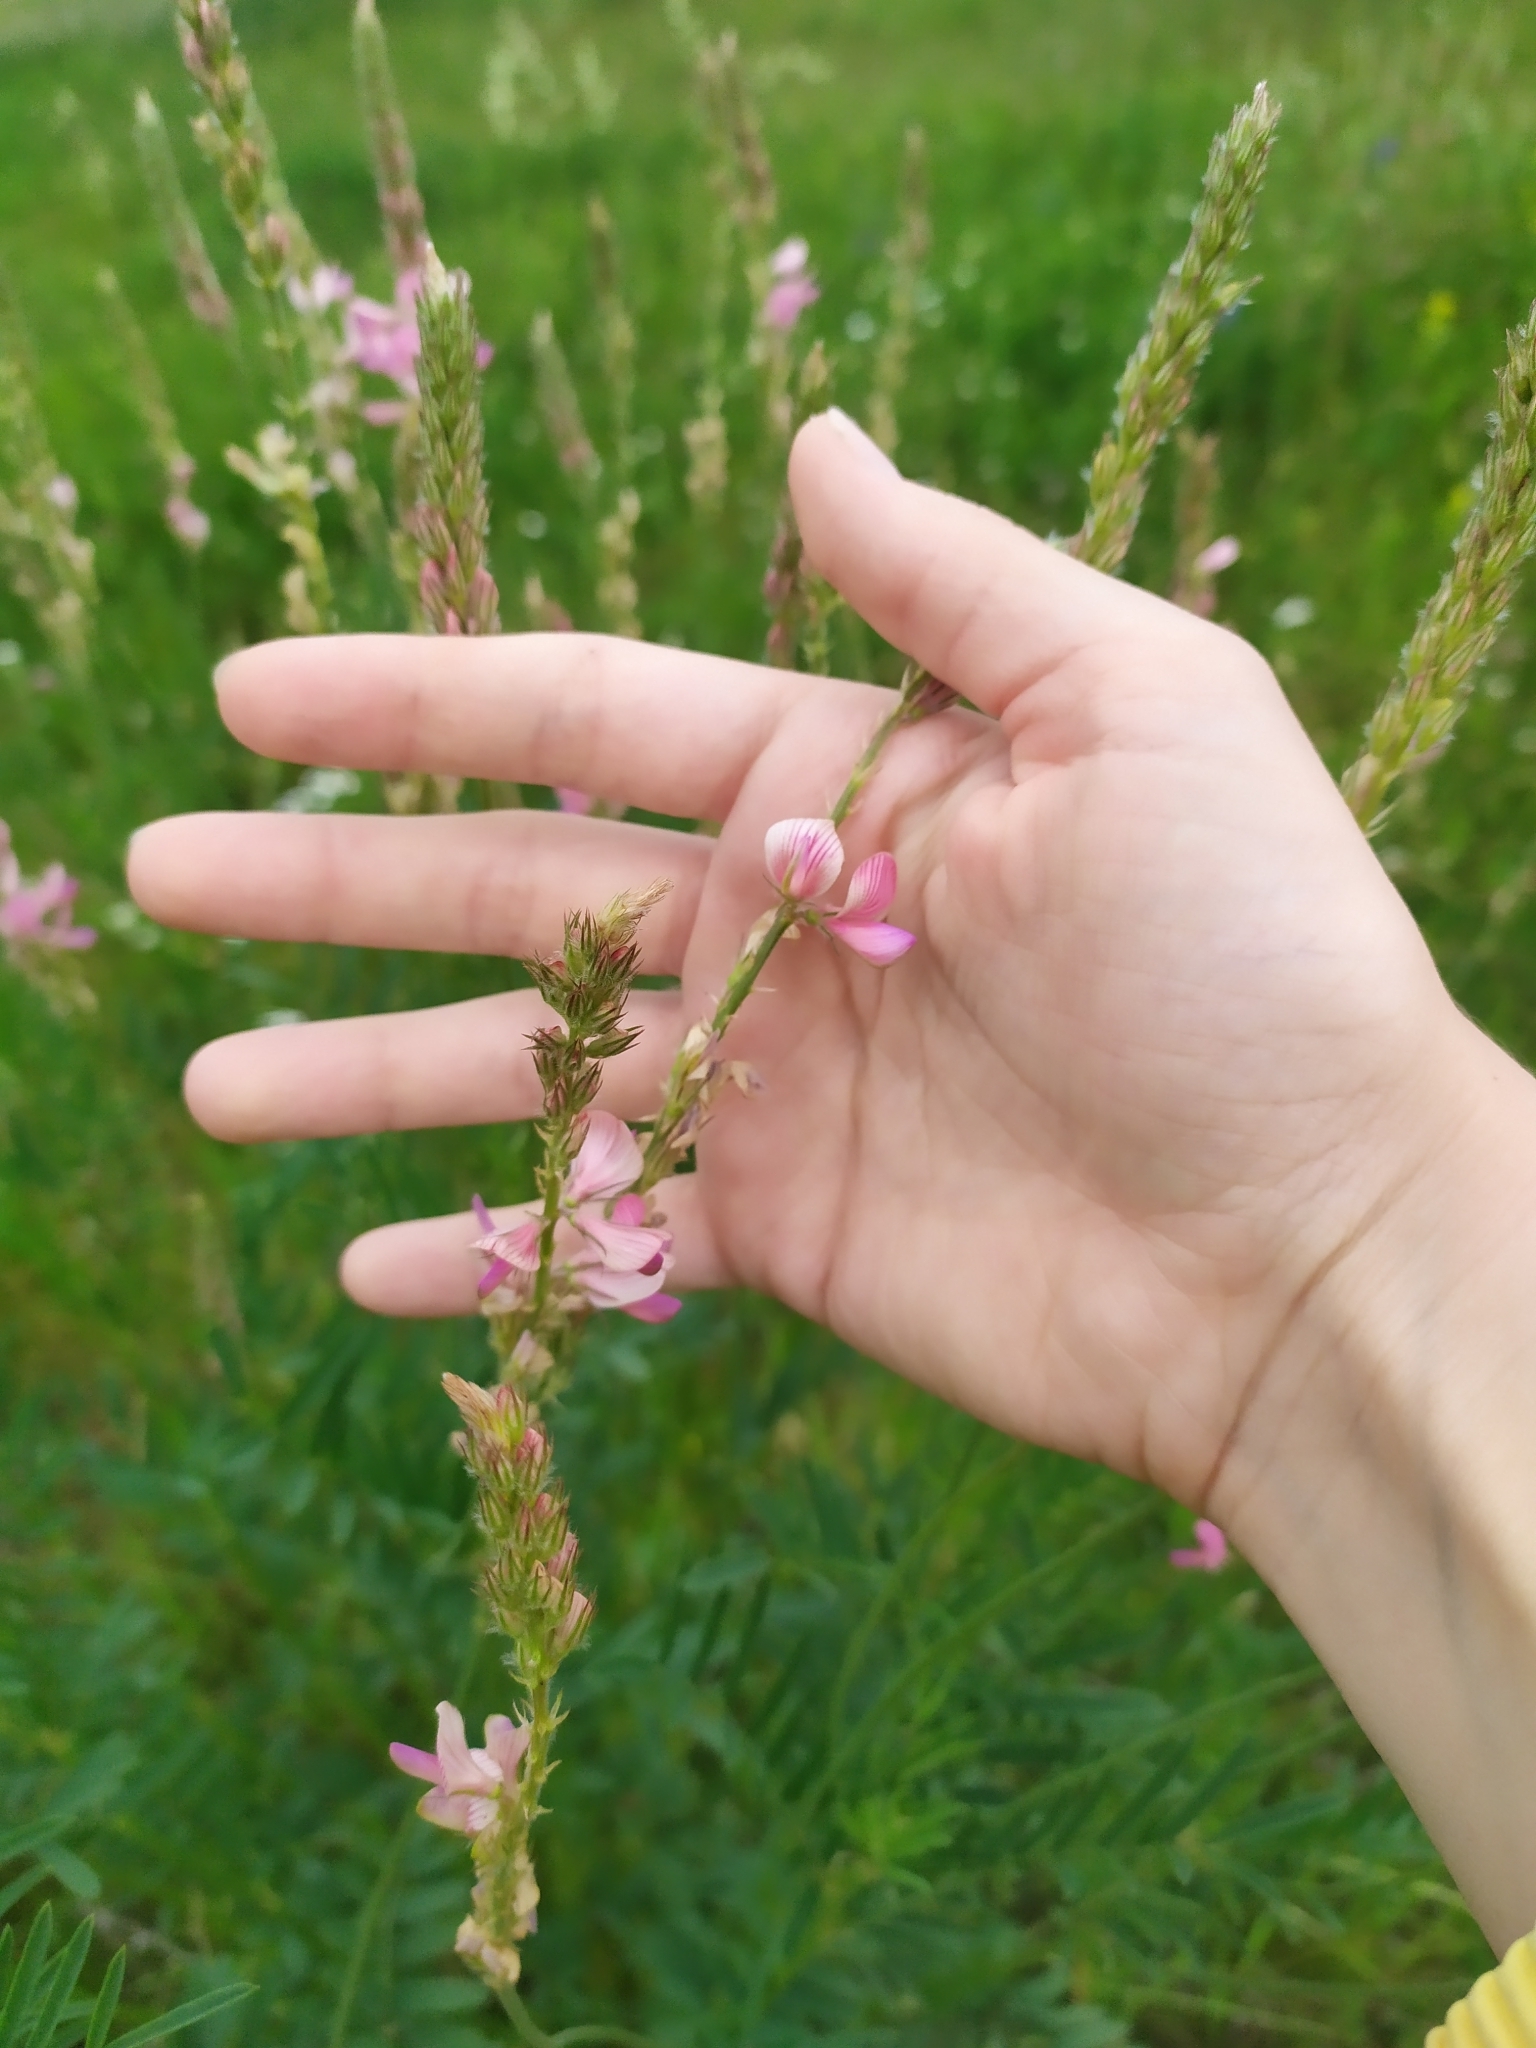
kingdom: Plantae
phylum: Tracheophyta
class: Magnoliopsida
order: Fabales
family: Fabaceae
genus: Onobrychis
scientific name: Onobrychis arenaria
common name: Sand esparcet
